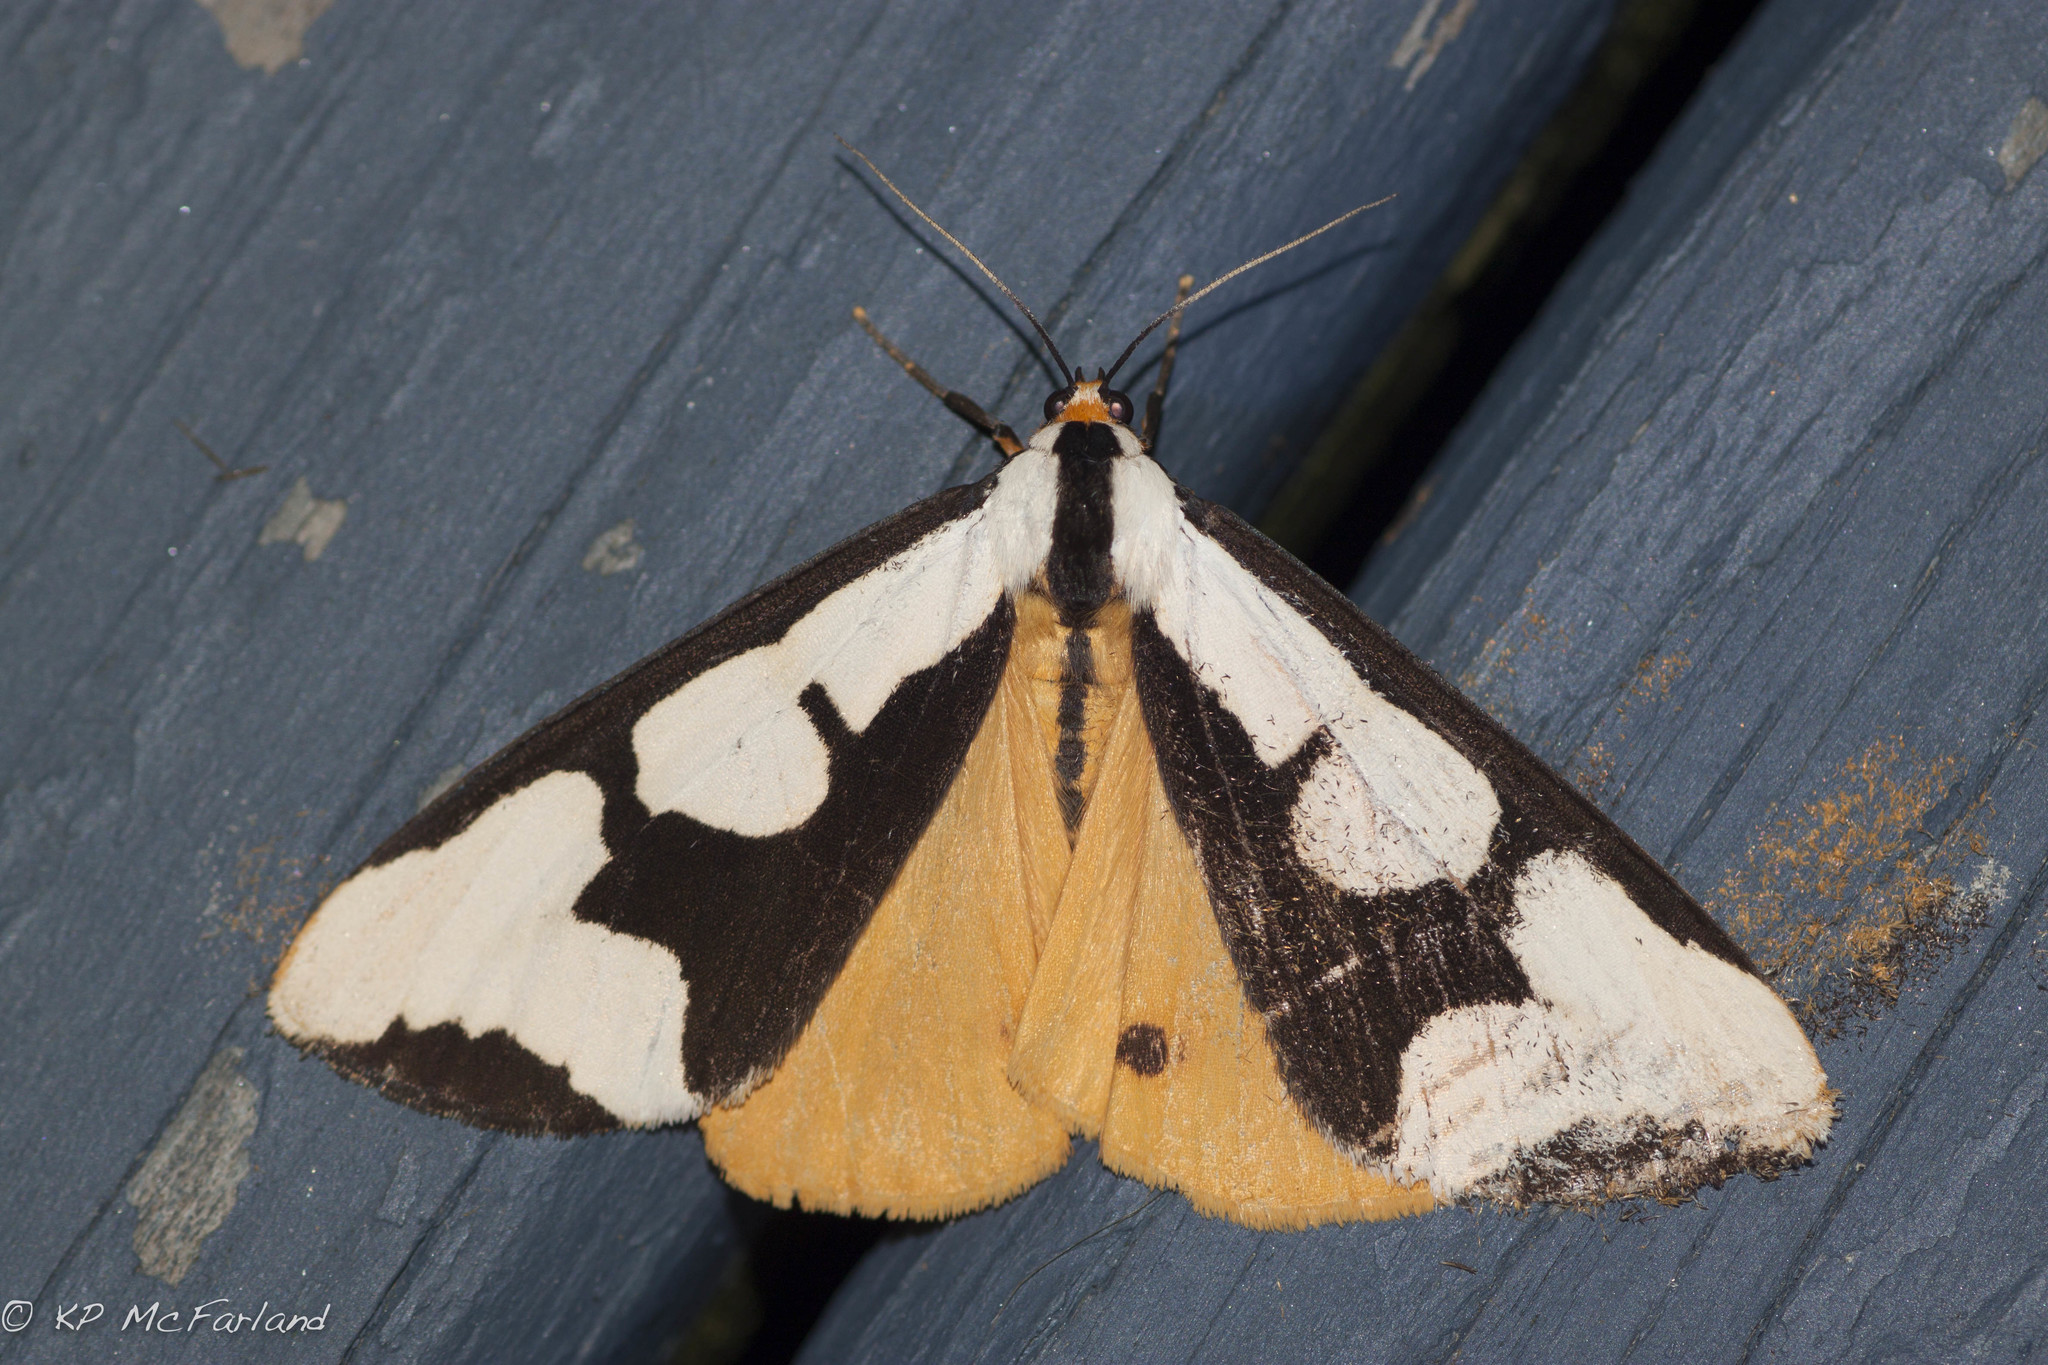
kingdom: Animalia
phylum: Arthropoda
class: Insecta
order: Lepidoptera
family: Erebidae
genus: Haploa
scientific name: Haploa clymene
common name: Clymene moth
